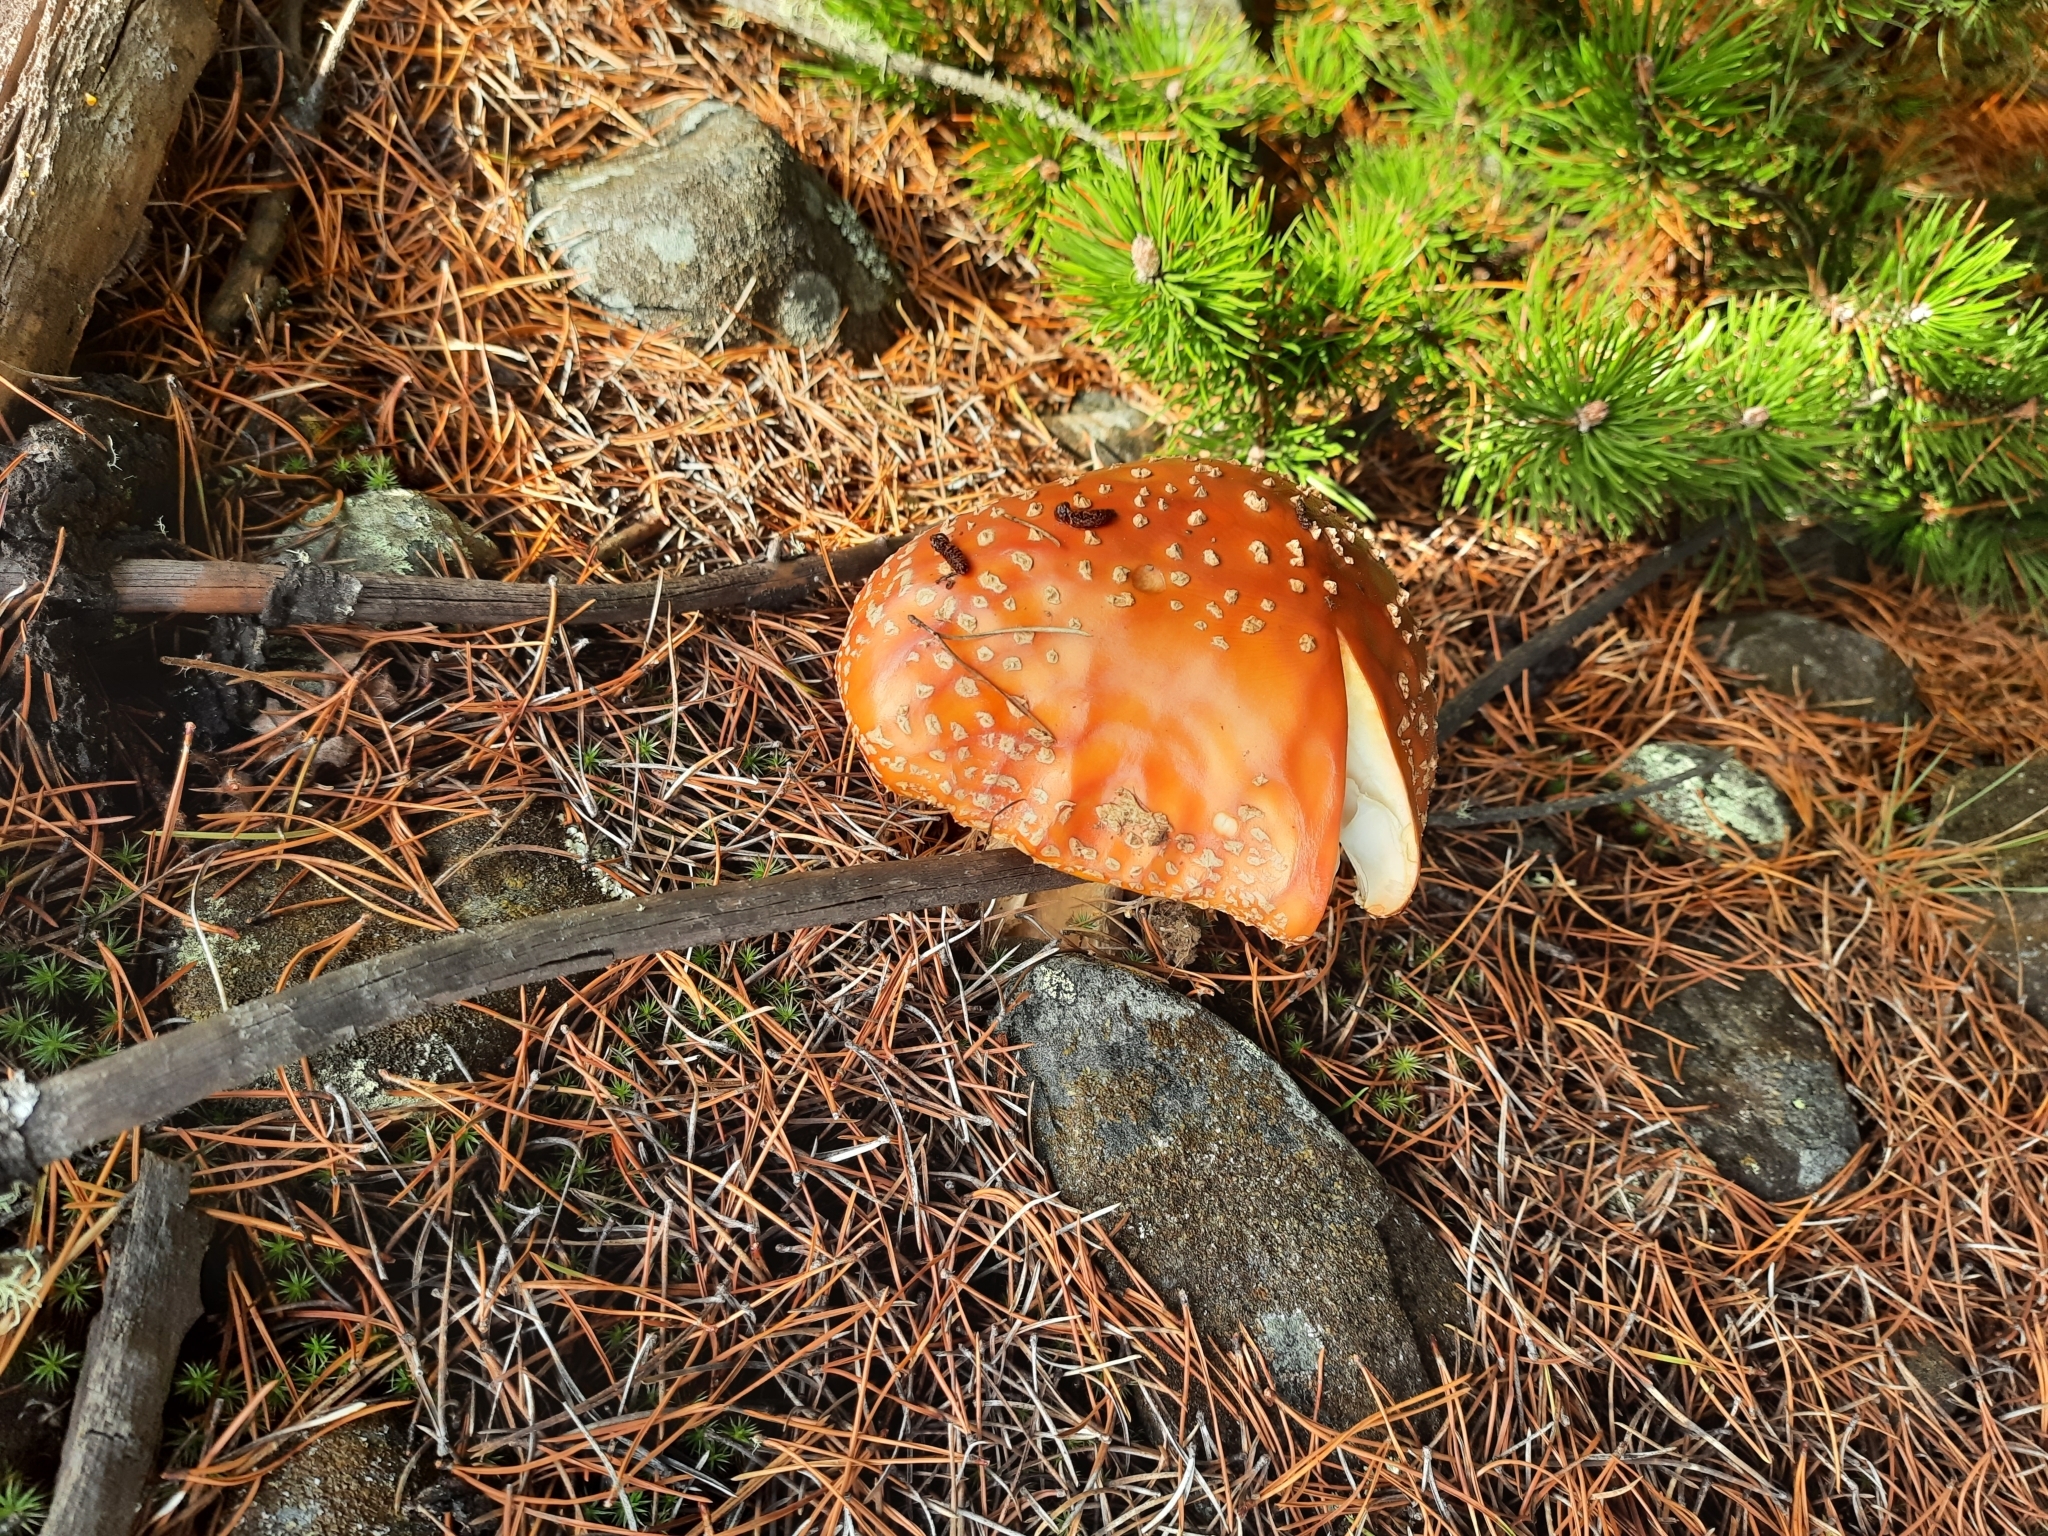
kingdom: Fungi
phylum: Basidiomycota
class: Agaricomycetes
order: Agaricales
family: Amanitaceae
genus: Amanita
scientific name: Amanita muscaria
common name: Fly agaric
